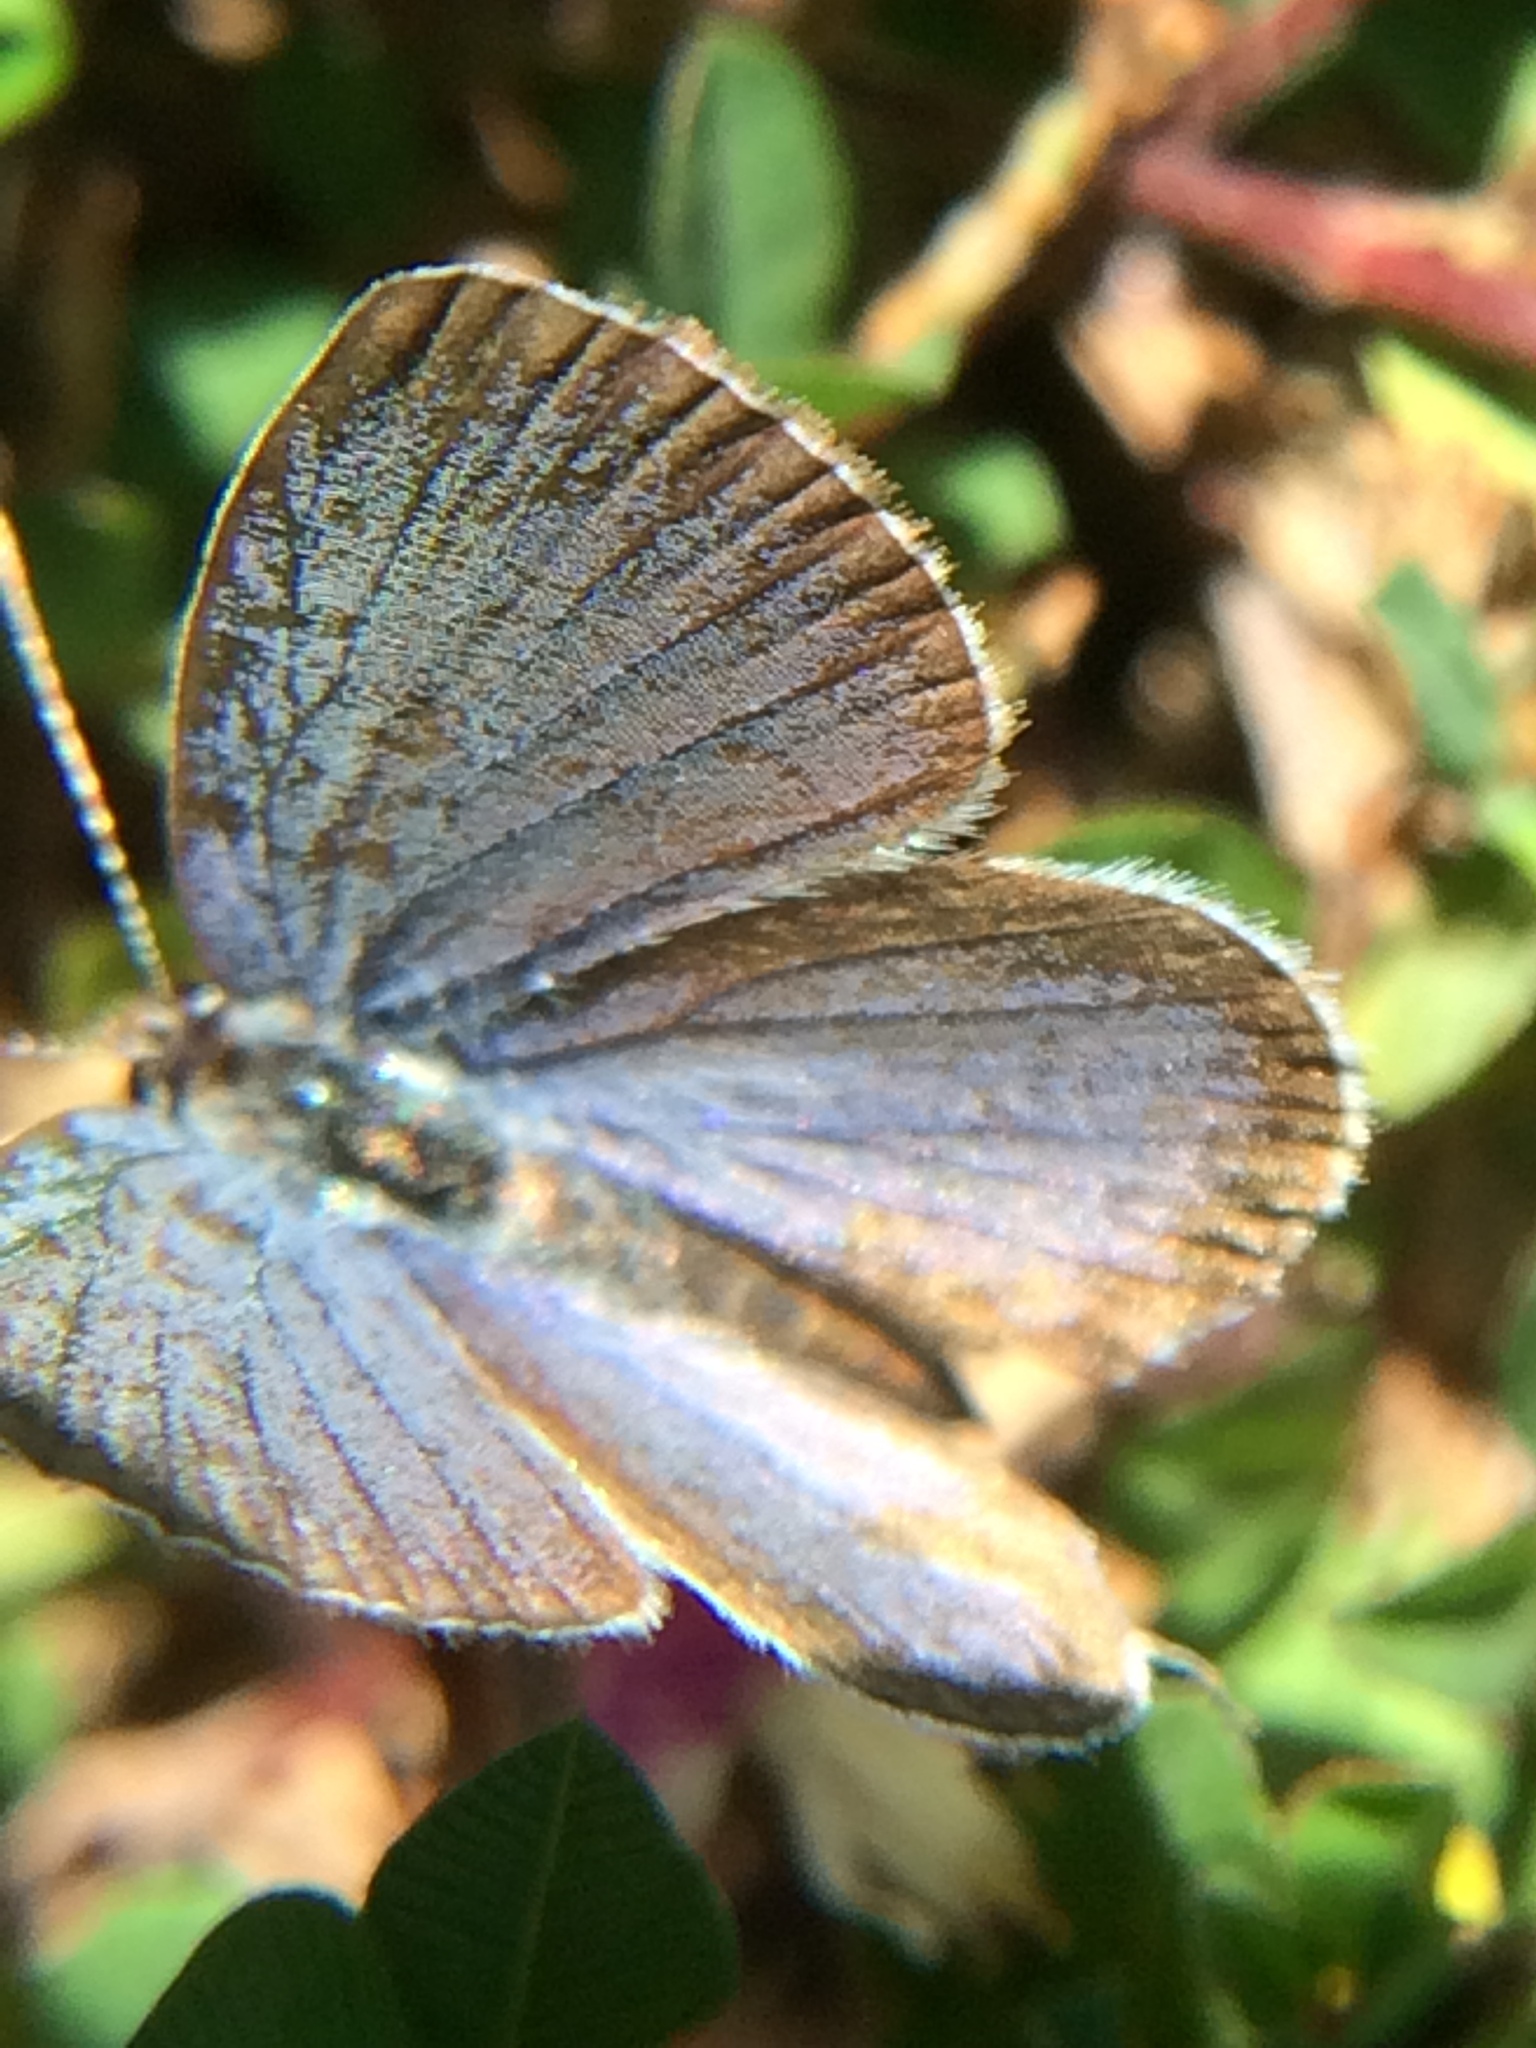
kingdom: Animalia
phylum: Arthropoda
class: Insecta
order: Lepidoptera
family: Lycaenidae
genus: Elkalyce
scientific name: Elkalyce comyntas
